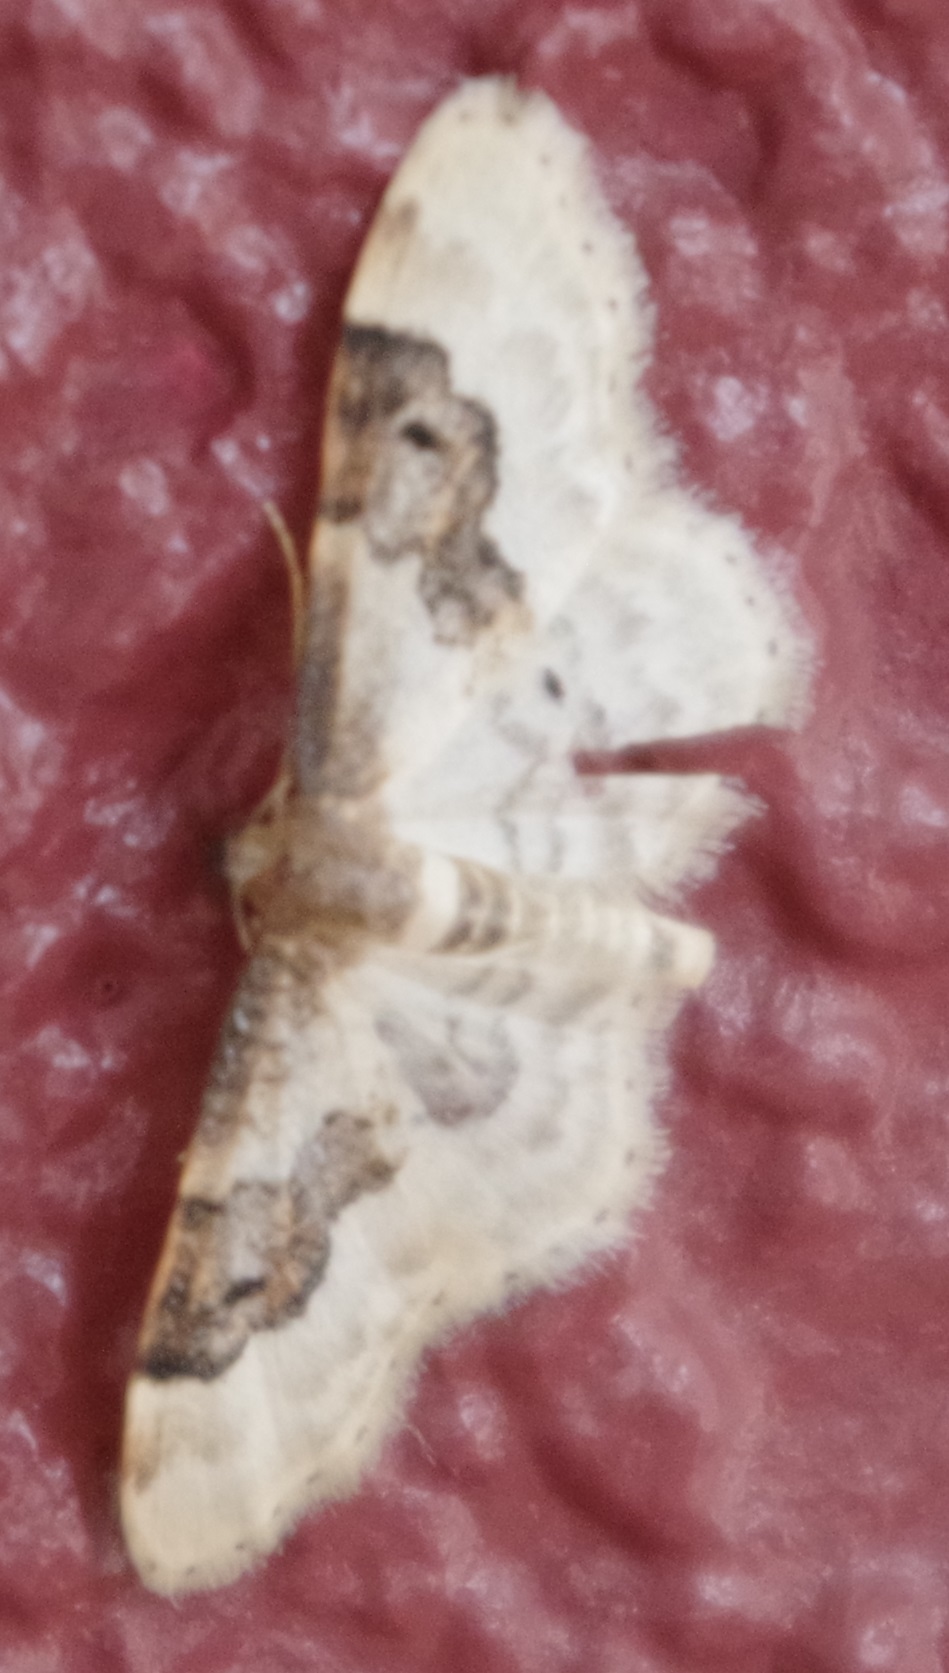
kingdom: Animalia
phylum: Arthropoda
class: Insecta
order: Lepidoptera
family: Geometridae
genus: Idaea
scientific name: Idaea rusticata
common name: Least carpet
